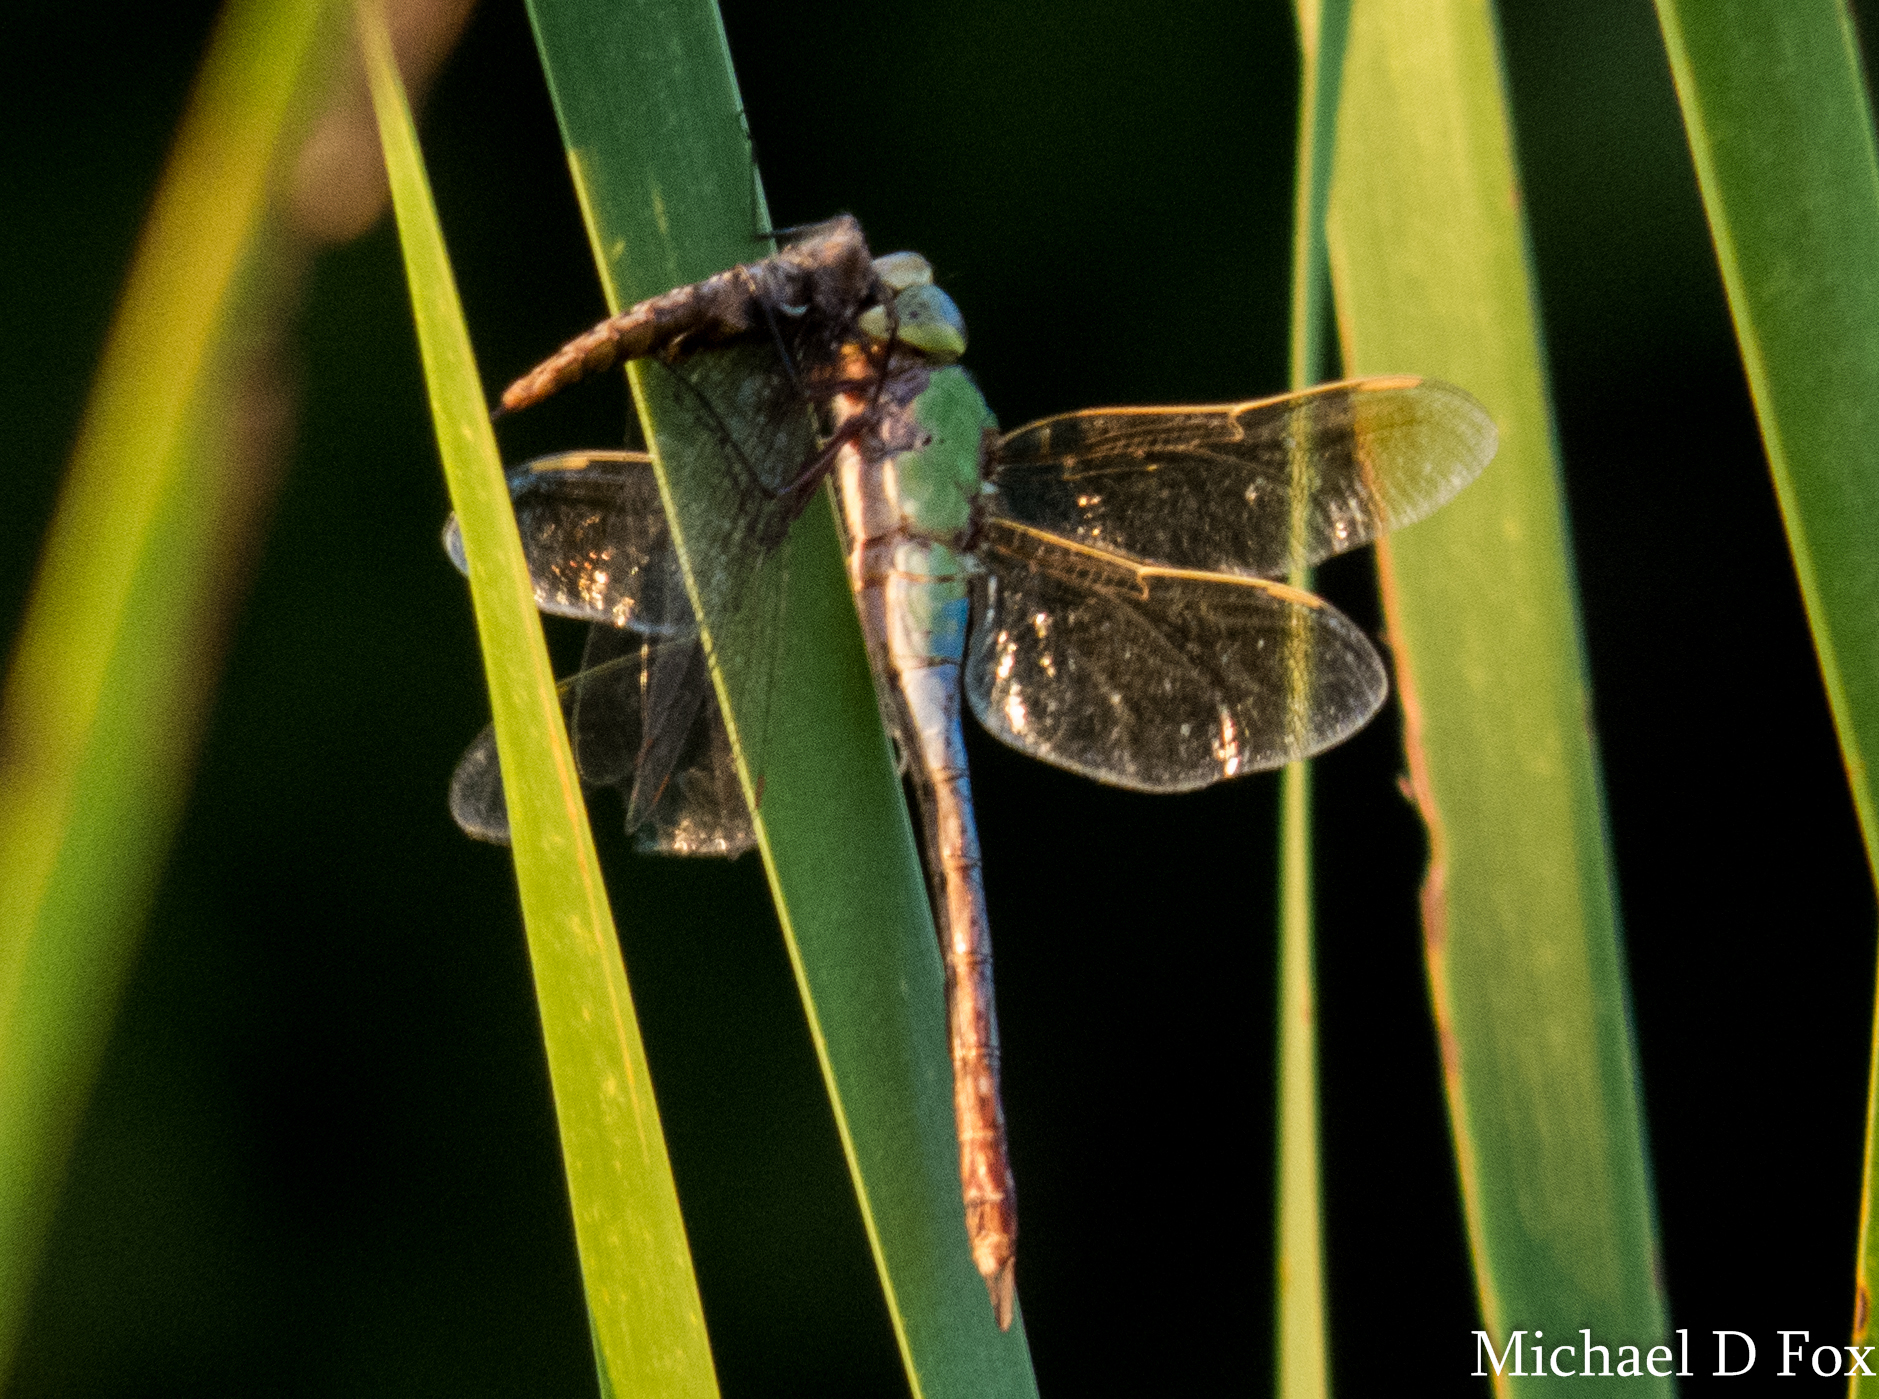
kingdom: Animalia
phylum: Arthropoda
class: Insecta
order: Odonata
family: Aeshnidae
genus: Anax
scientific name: Anax junius
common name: Common green darner
